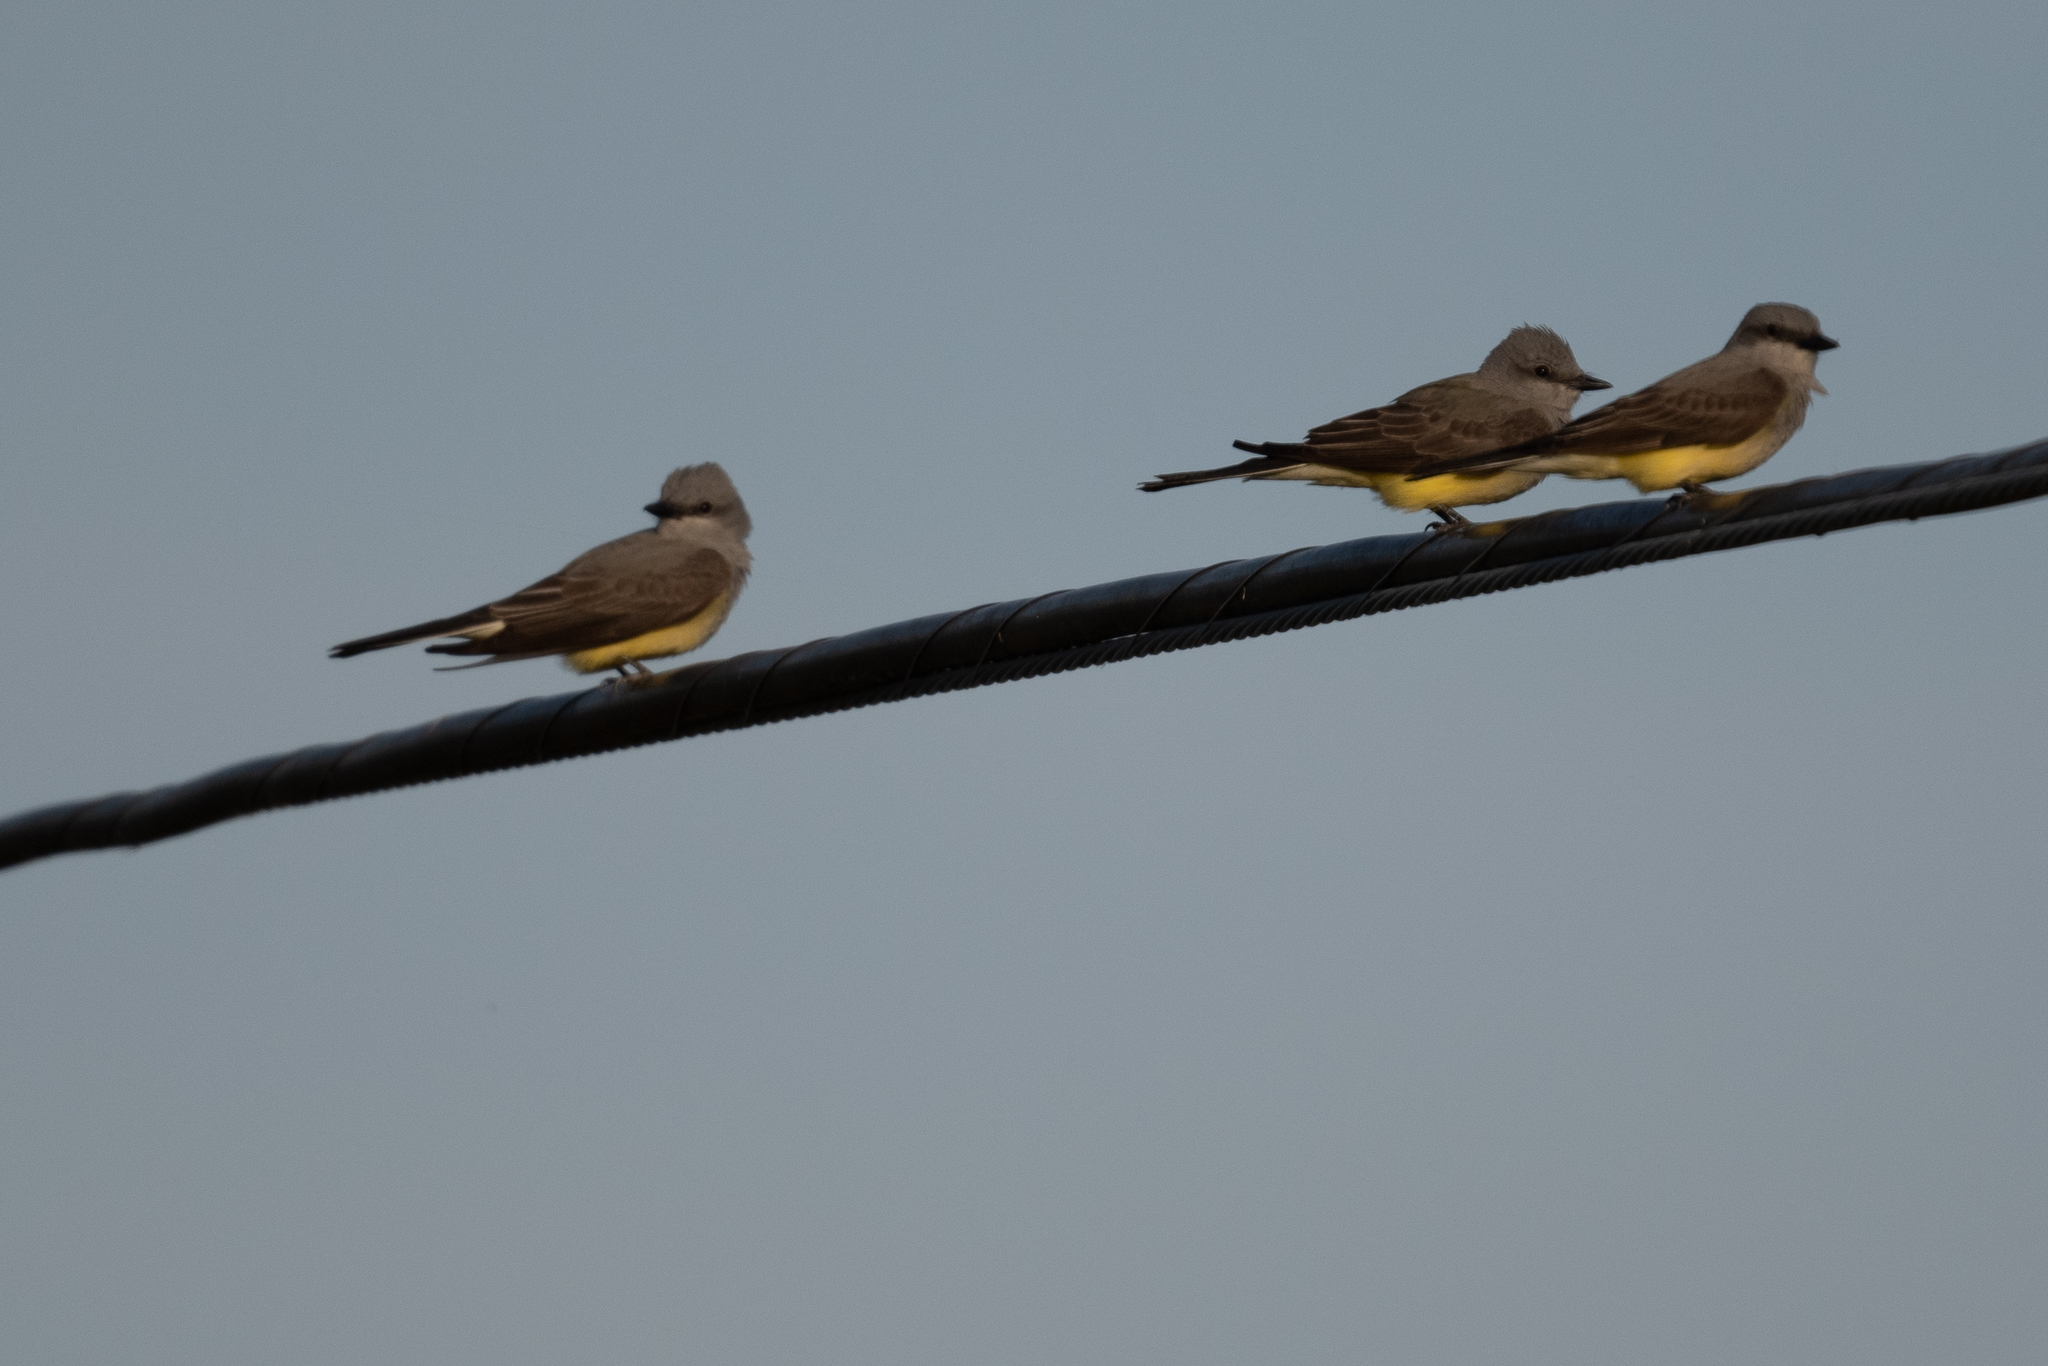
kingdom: Animalia
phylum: Chordata
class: Aves
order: Passeriformes
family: Tyrannidae
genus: Tyrannus
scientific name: Tyrannus verticalis
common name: Western kingbird
